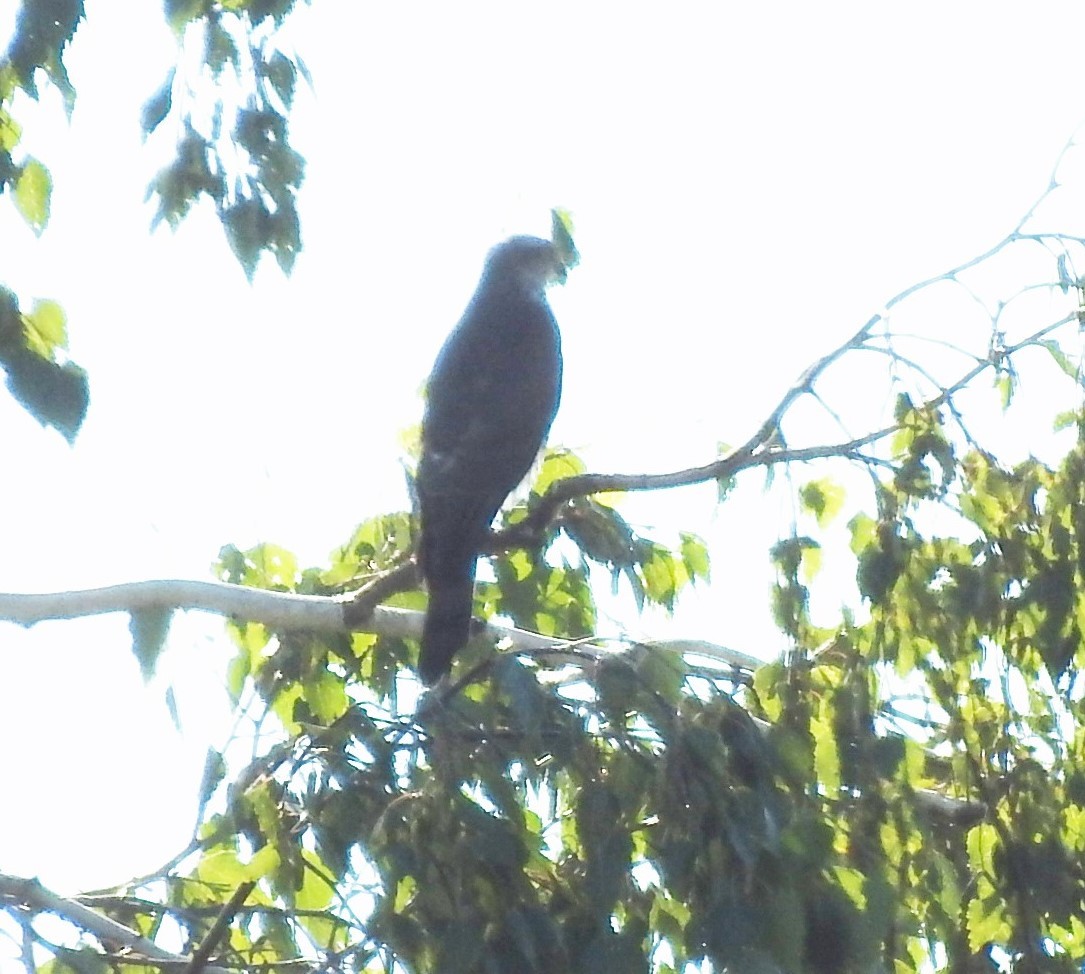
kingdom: Animalia
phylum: Chordata
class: Aves
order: Accipitriformes
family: Accipitridae
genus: Accipiter
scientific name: Accipiter nisus
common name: Eurasian sparrowhawk
